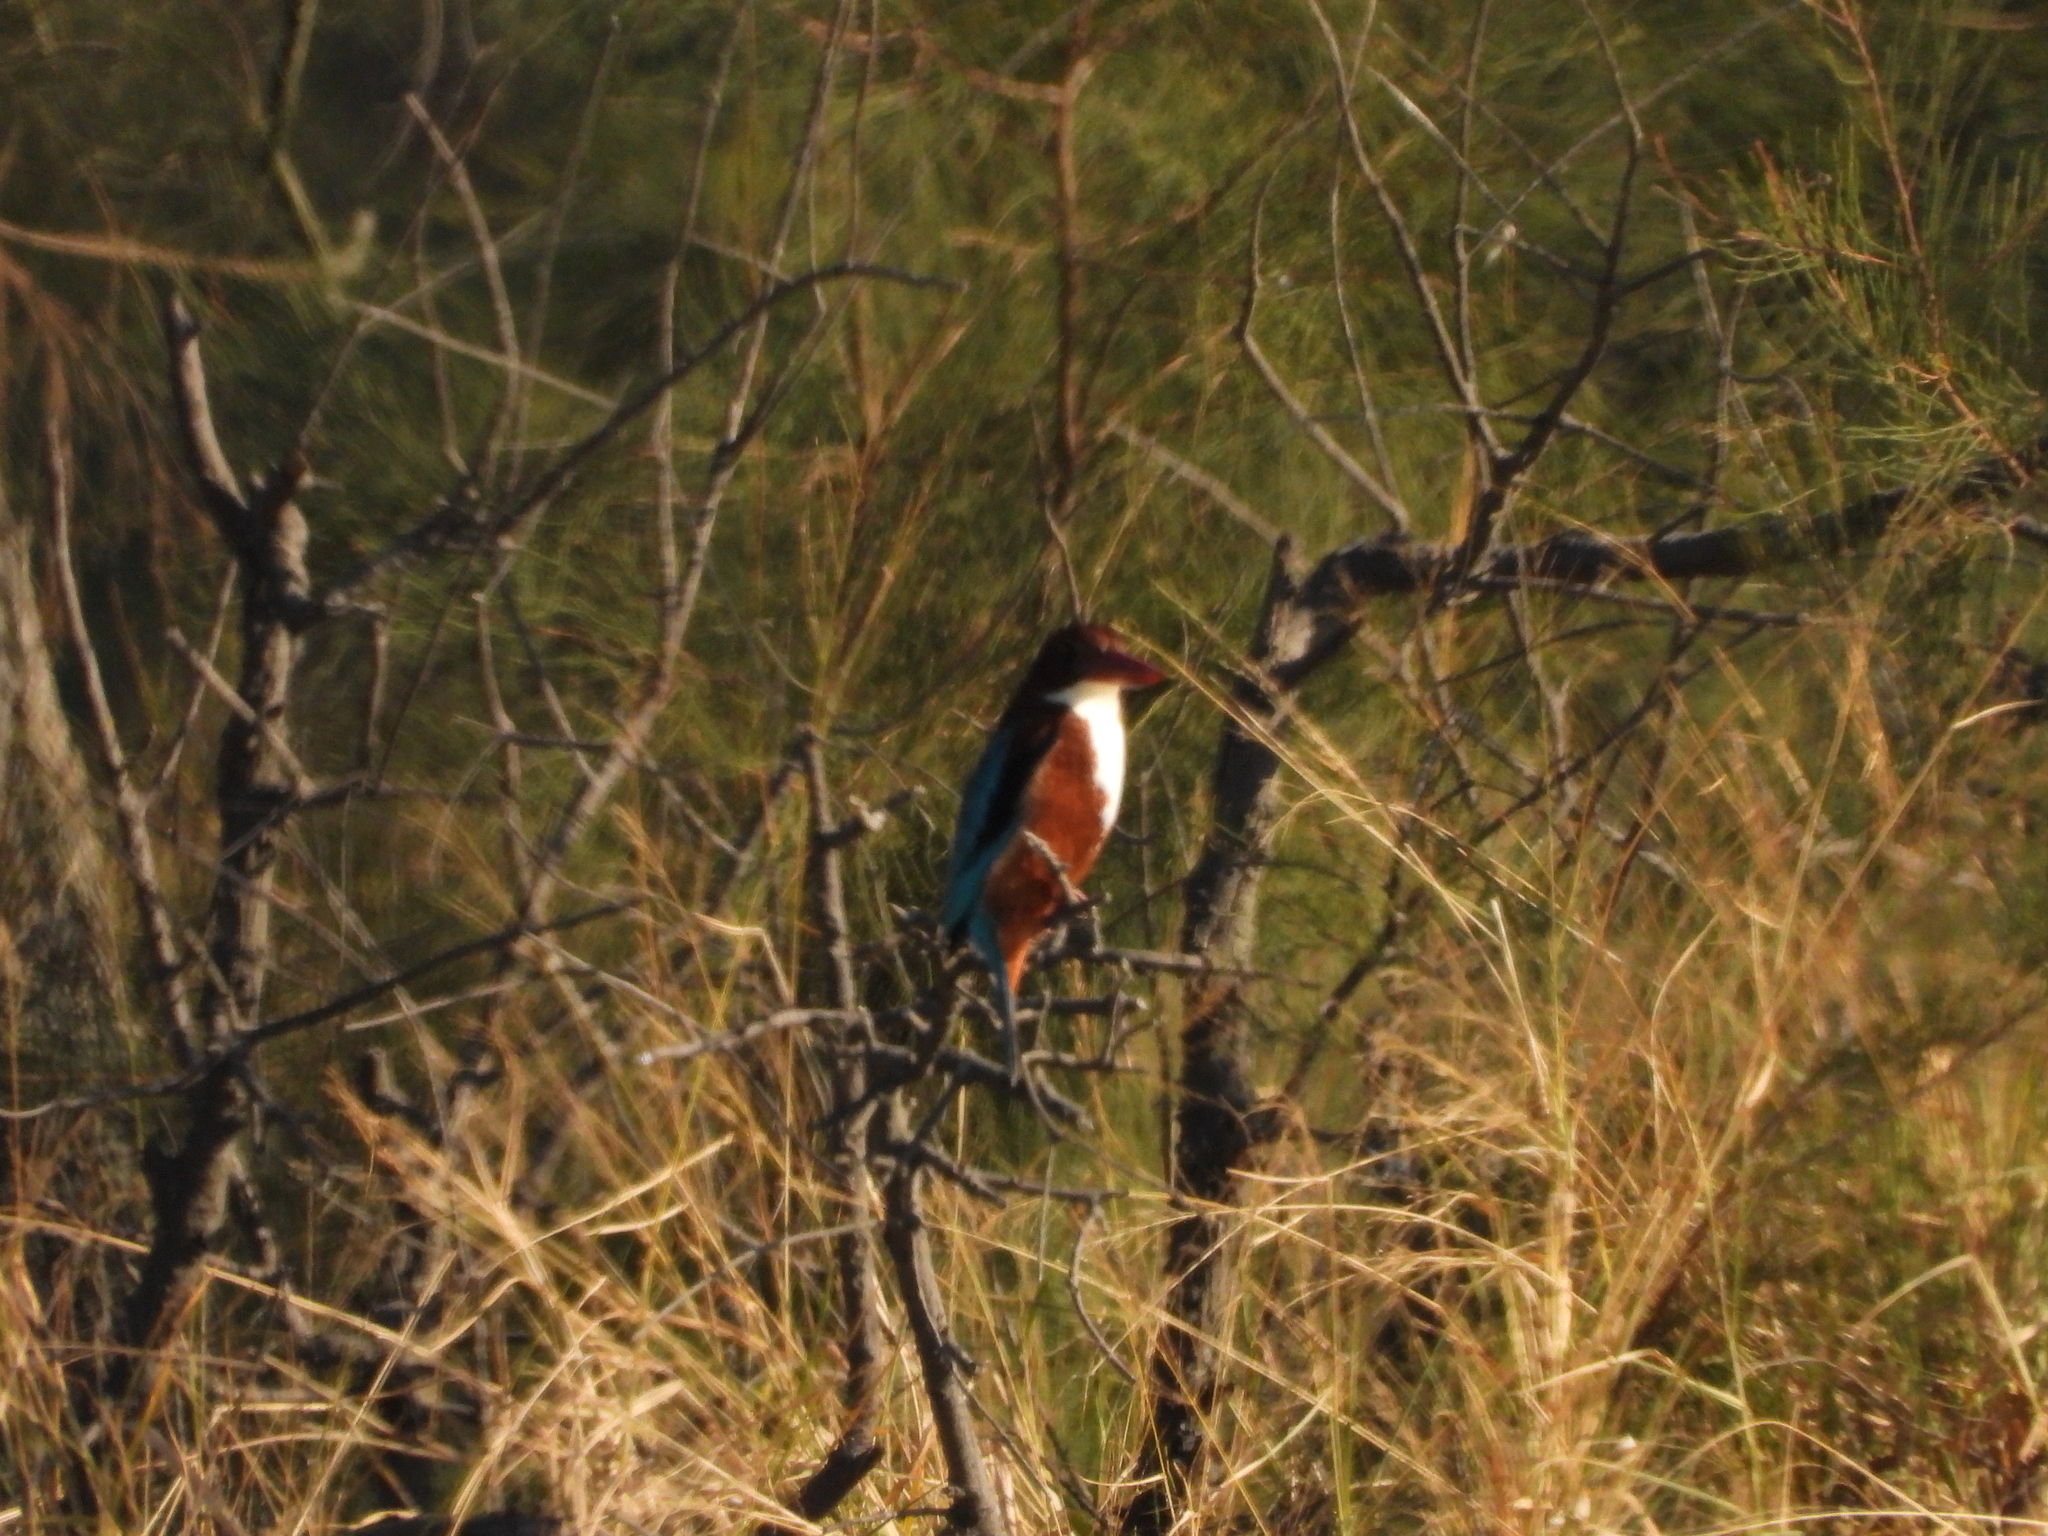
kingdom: Animalia
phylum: Chordata
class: Aves
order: Coraciiformes
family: Alcedinidae
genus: Halcyon
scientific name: Halcyon smyrnensis
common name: White-throated kingfisher
